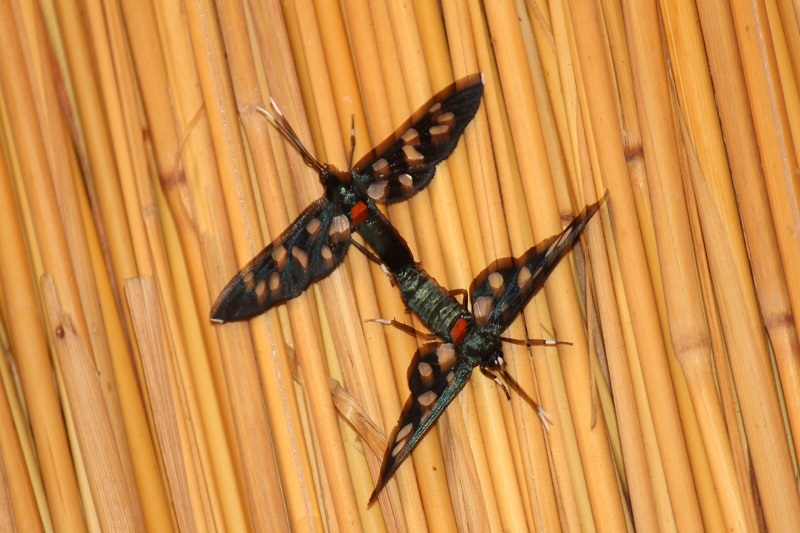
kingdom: Animalia
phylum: Arthropoda
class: Insecta
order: Lepidoptera
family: Erebidae
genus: Amata
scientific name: Amata kuhlweini
